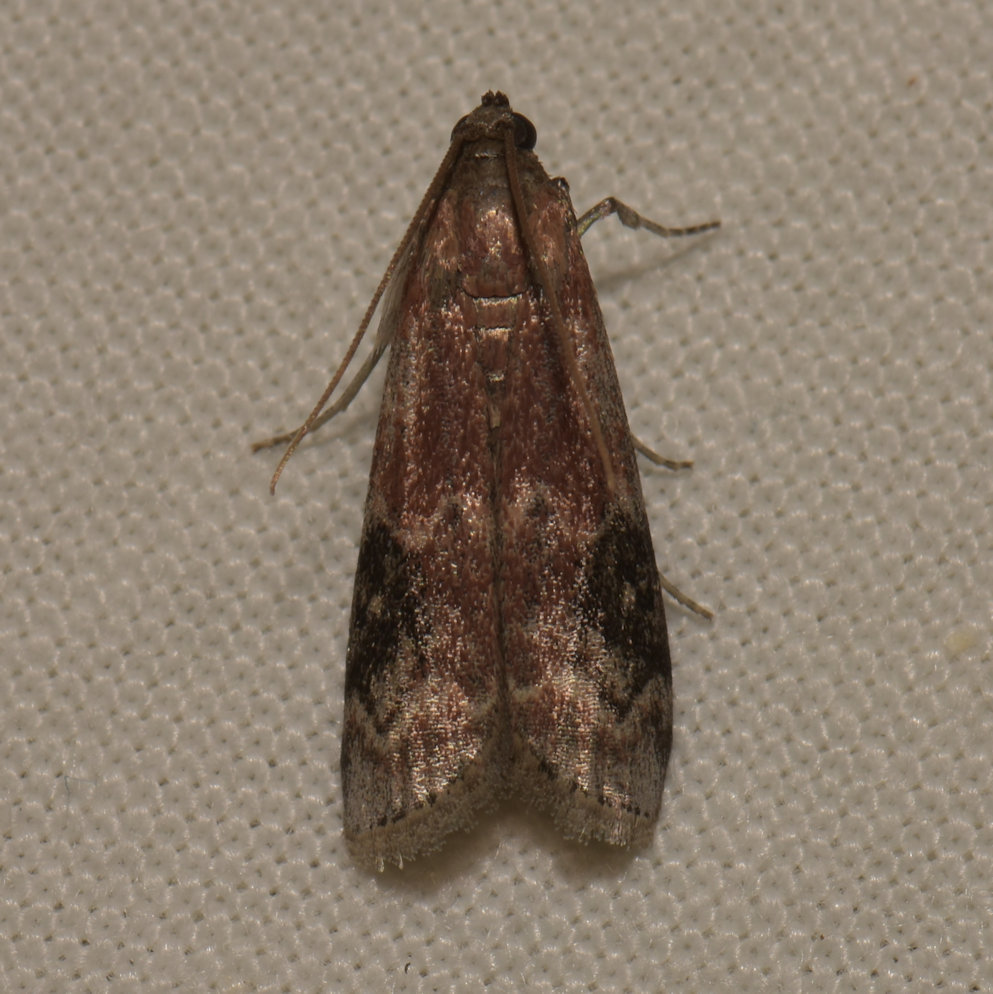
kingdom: Animalia
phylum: Arthropoda
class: Insecta
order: Lepidoptera
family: Pyralidae
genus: Euzophera
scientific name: Euzophera semifuneralis
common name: American plum borer moth
